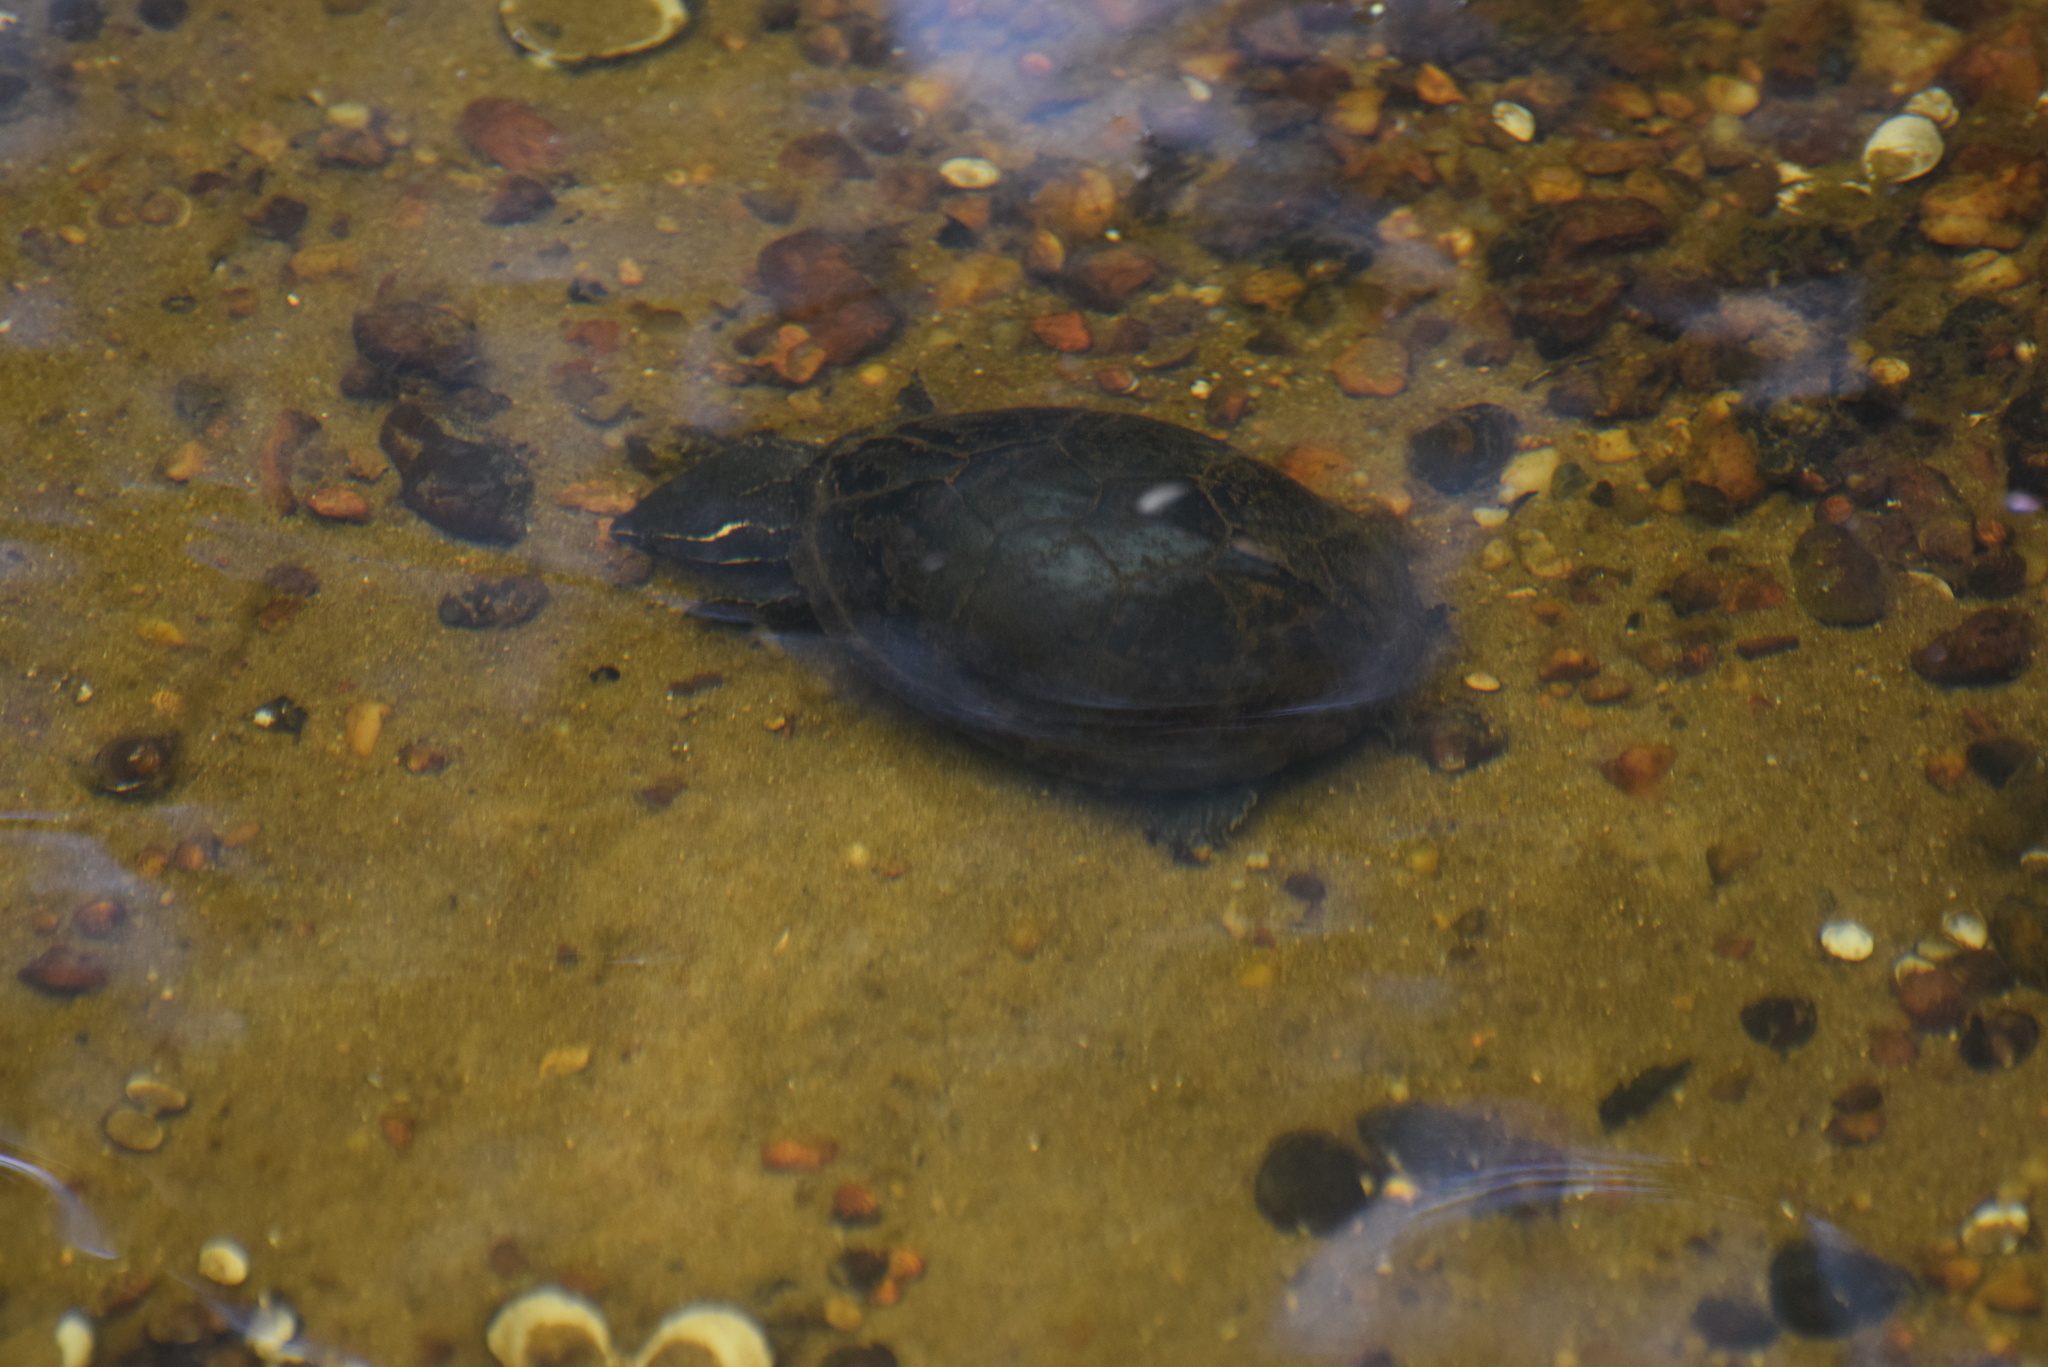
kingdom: Animalia
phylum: Chordata
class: Testudines
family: Kinosternidae
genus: Sternotherus
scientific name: Sternotherus odoratus
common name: Common musk turtle
